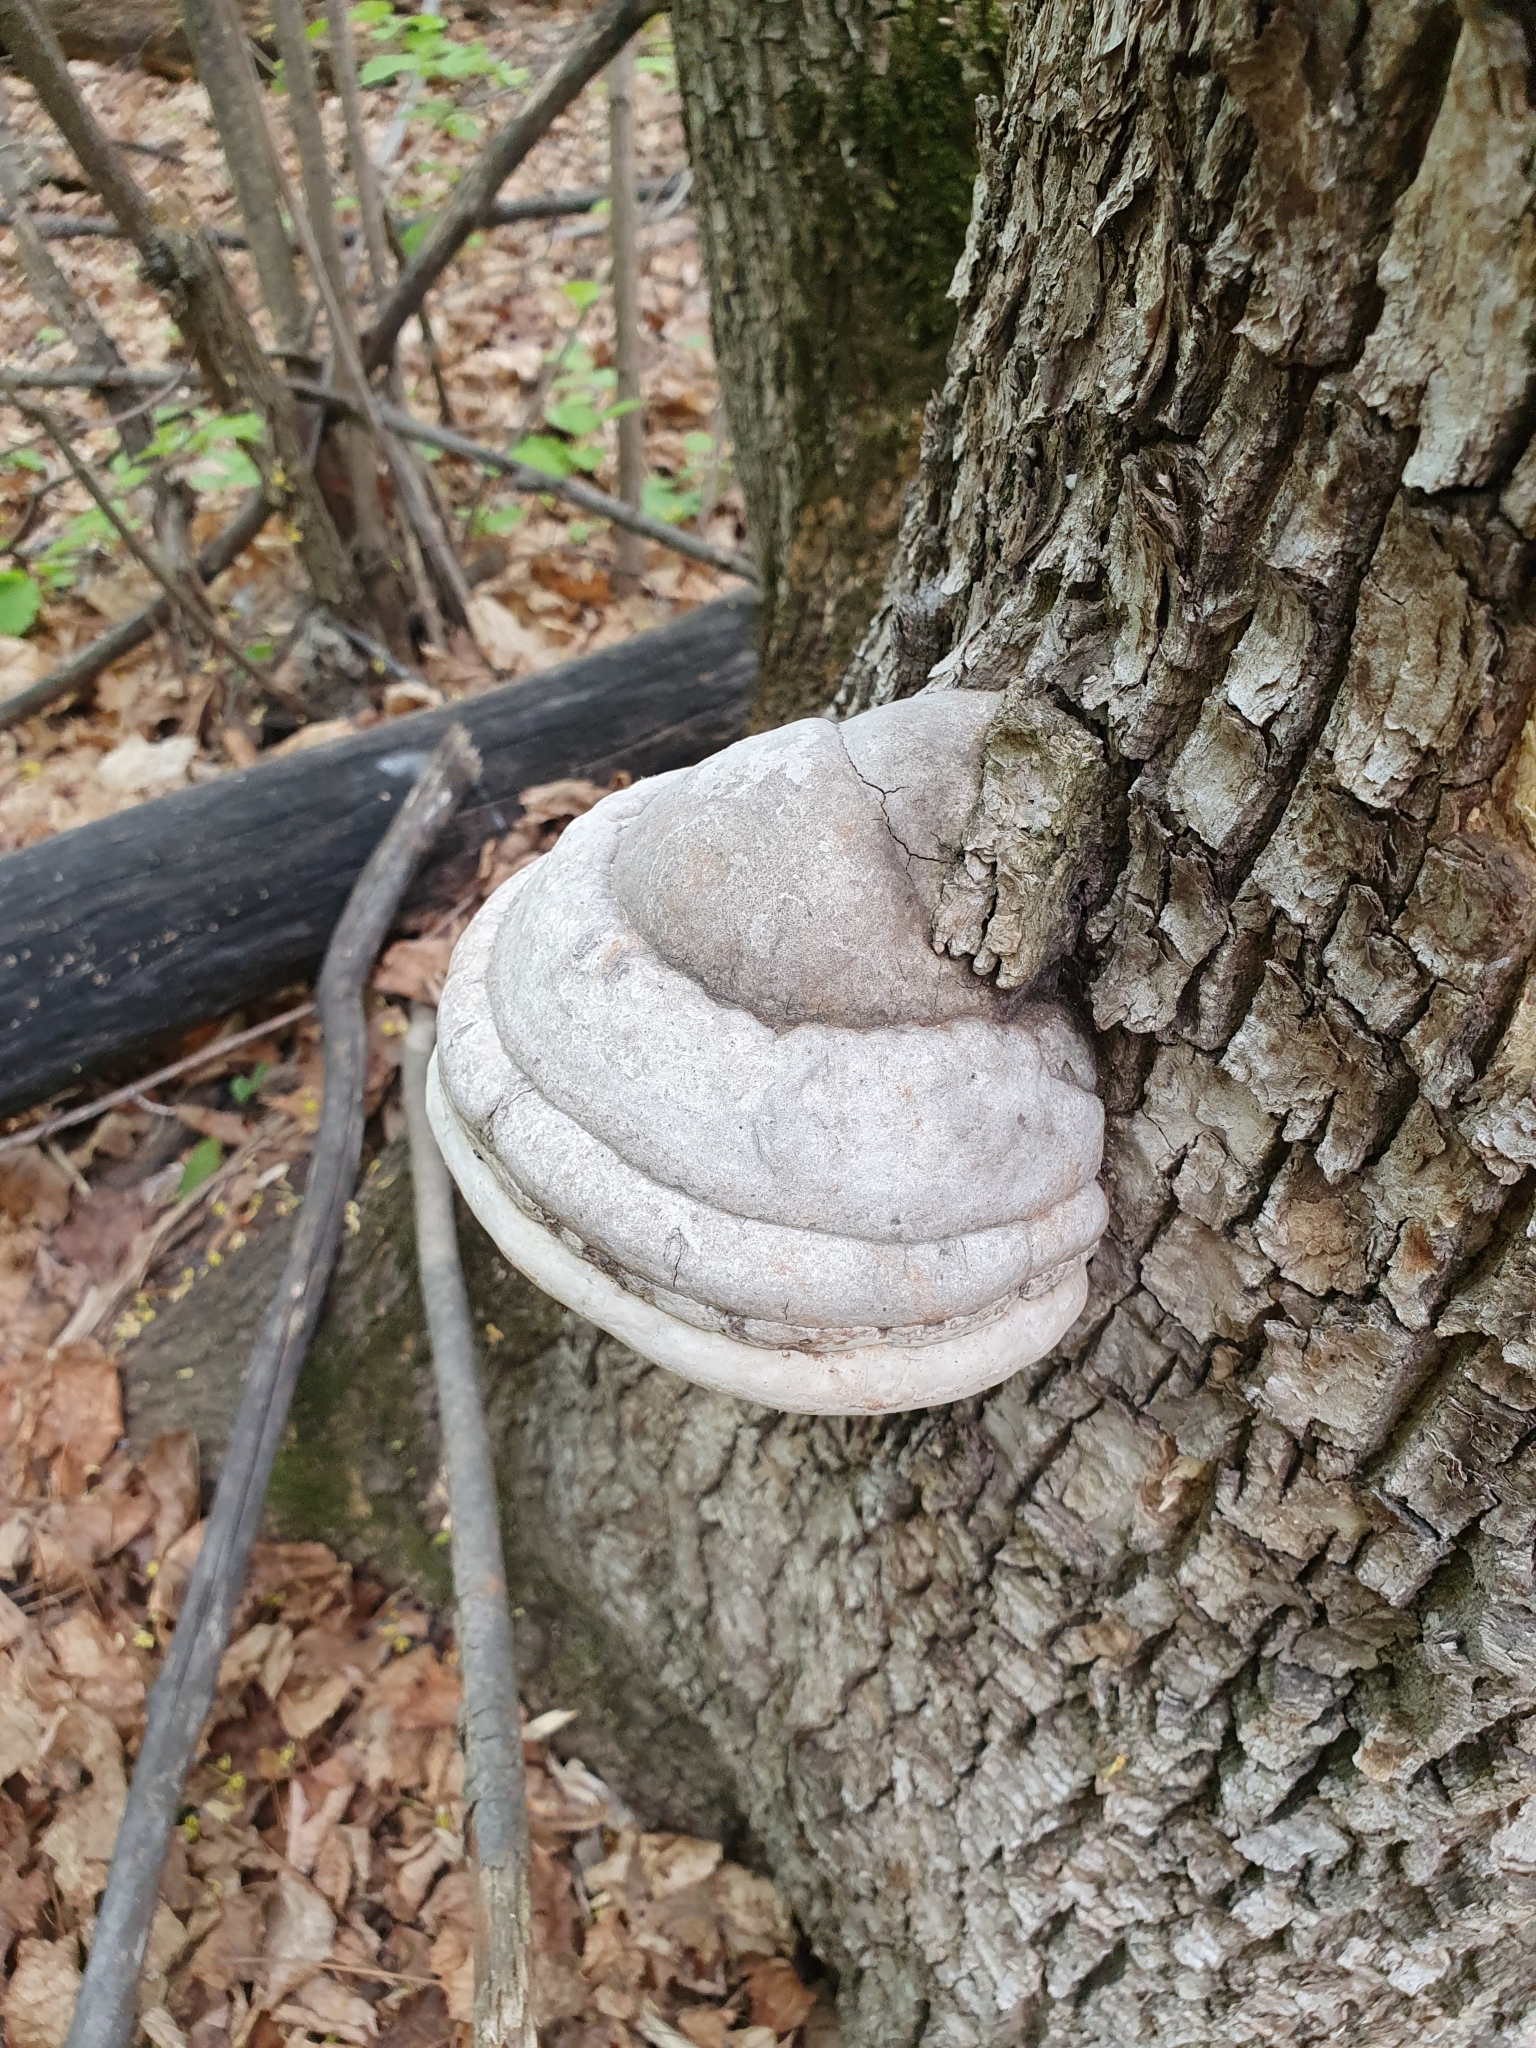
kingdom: Fungi
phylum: Basidiomycota
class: Agaricomycetes
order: Polyporales
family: Polyporaceae
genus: Fomes
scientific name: Fomes fomentarius
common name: Hoof fungus
